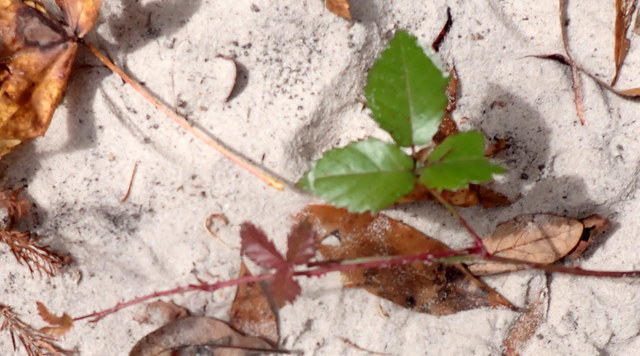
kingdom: Plantae
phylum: Tracheophyta
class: Magnoliopsida
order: Rosales
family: Rosaceae
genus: Rubus
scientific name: Rubus trivialis
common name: Southern dewberry
